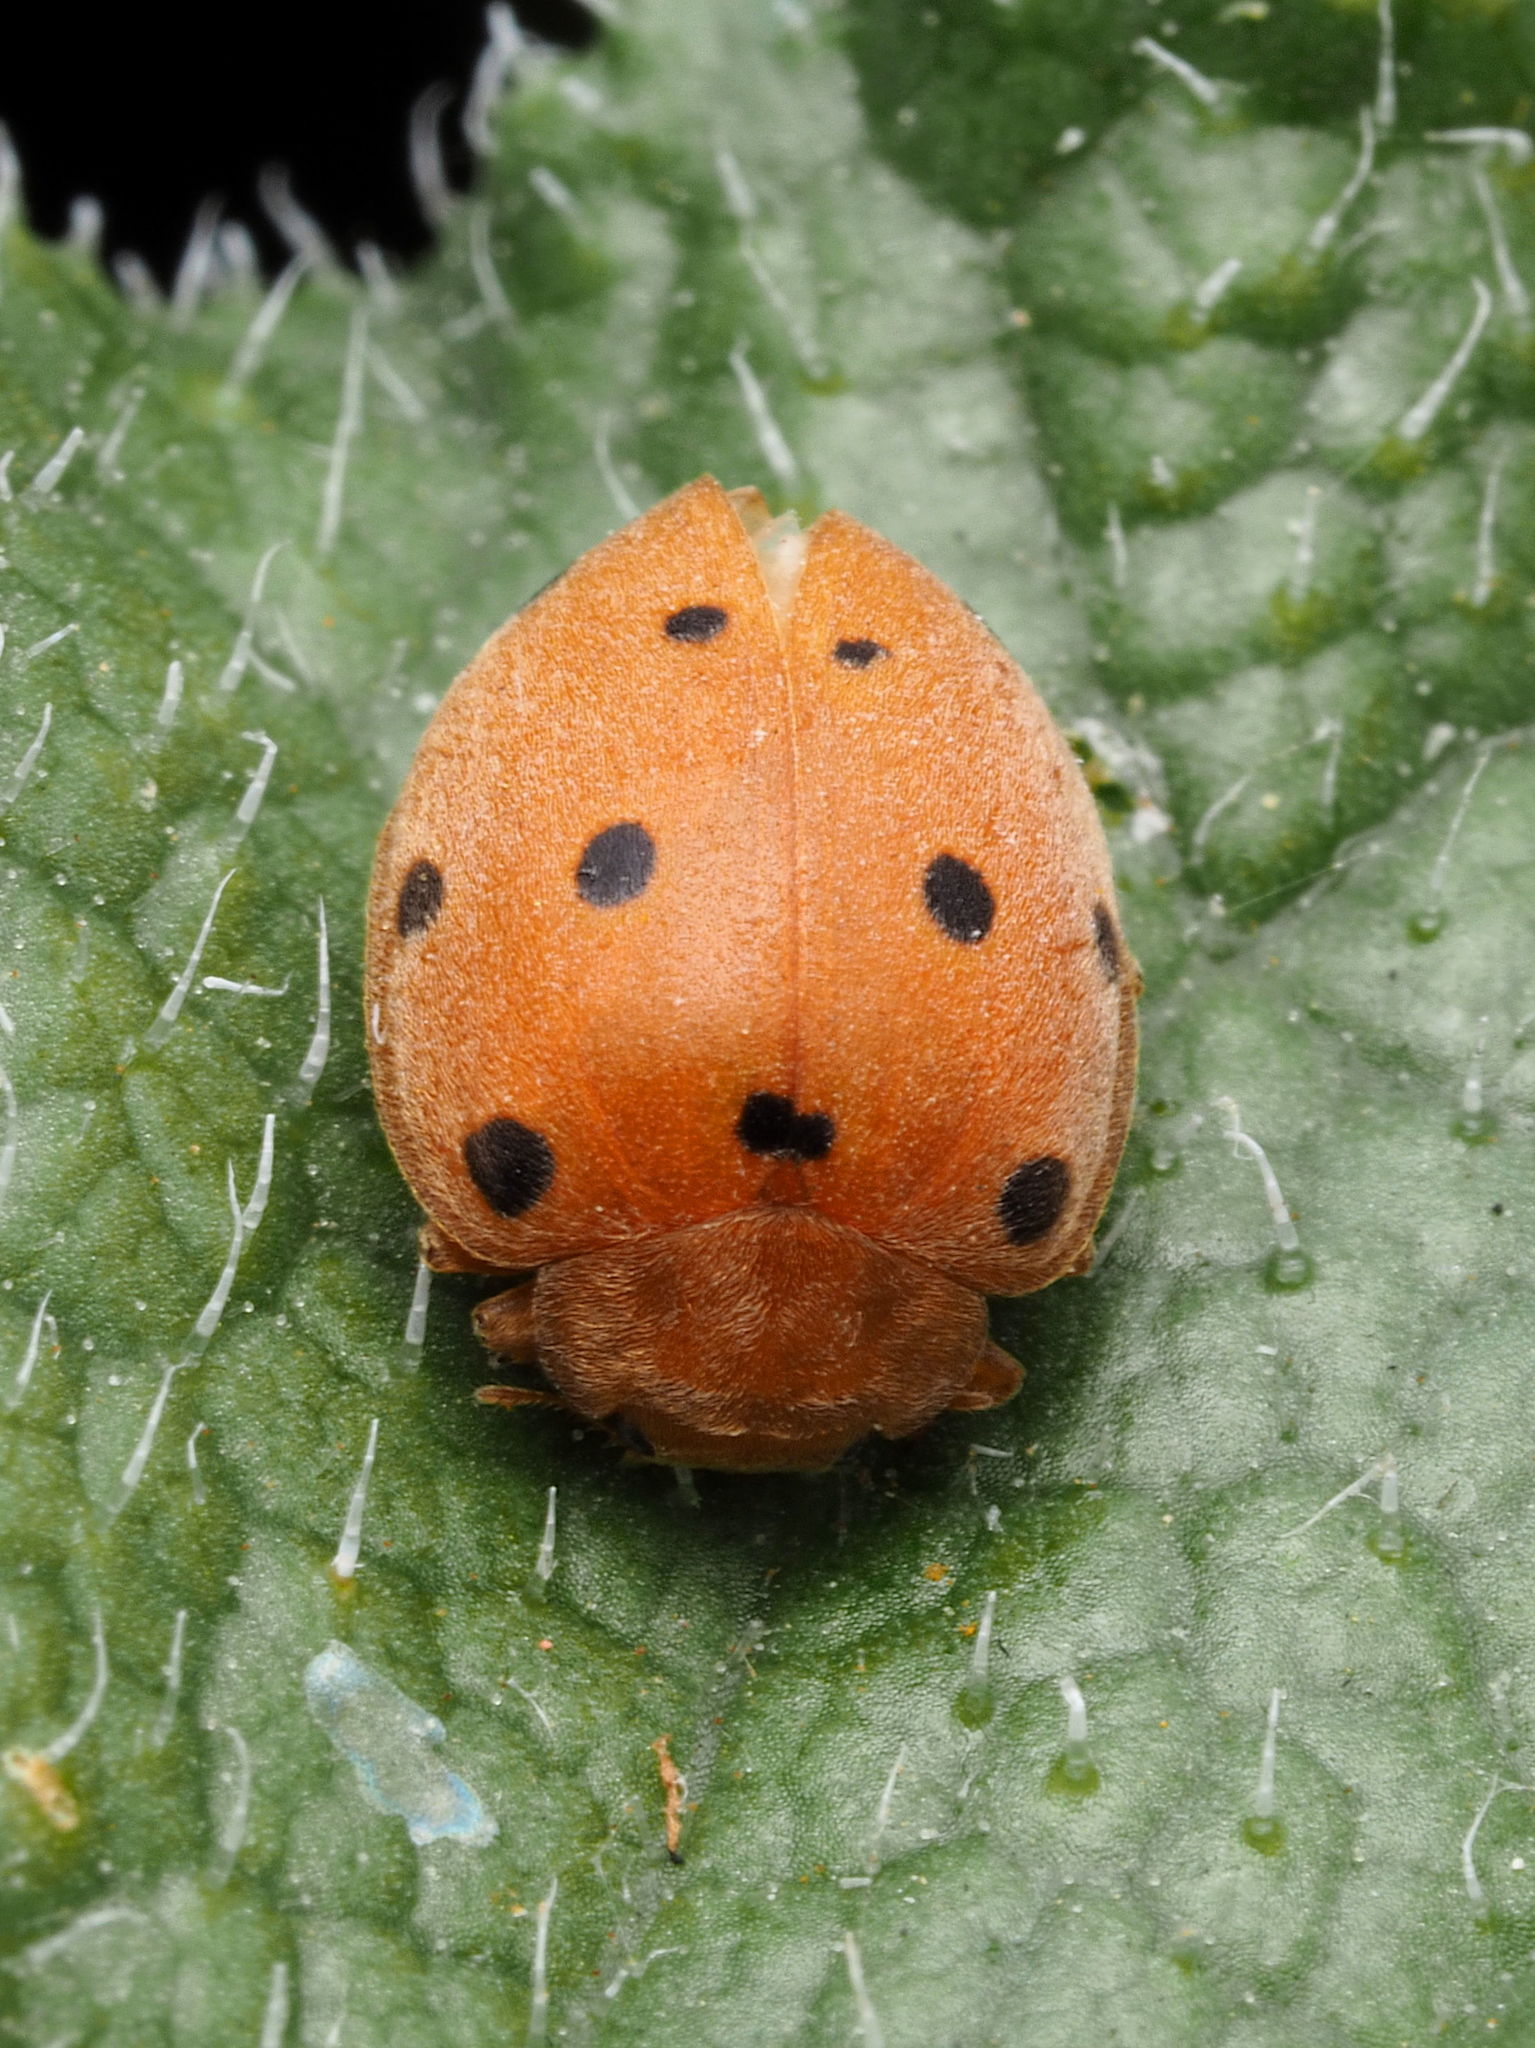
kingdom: Animalia
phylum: Arthropoda
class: Insecta
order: Coleoptera
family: Coccinellidae
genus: Henosepilachna
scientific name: Henosepilachna
